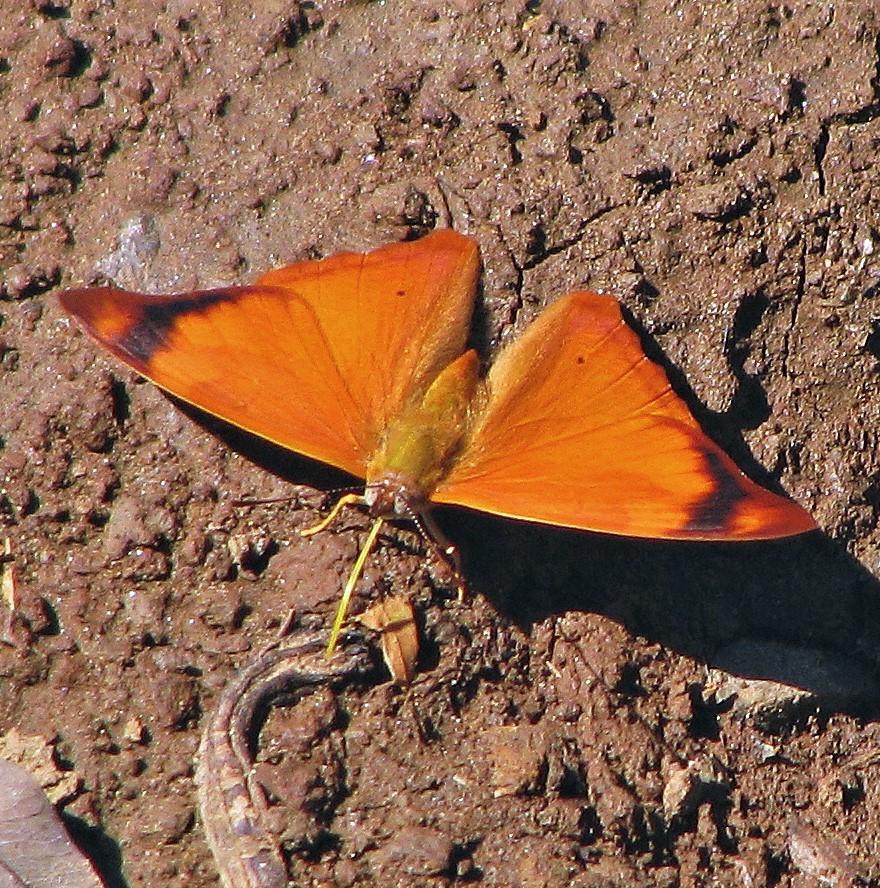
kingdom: Animalia
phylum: Arthropoda
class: Insecta
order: Lepidoptera
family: Nymphalidae
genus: Temenis
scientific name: Temenis laothoe
